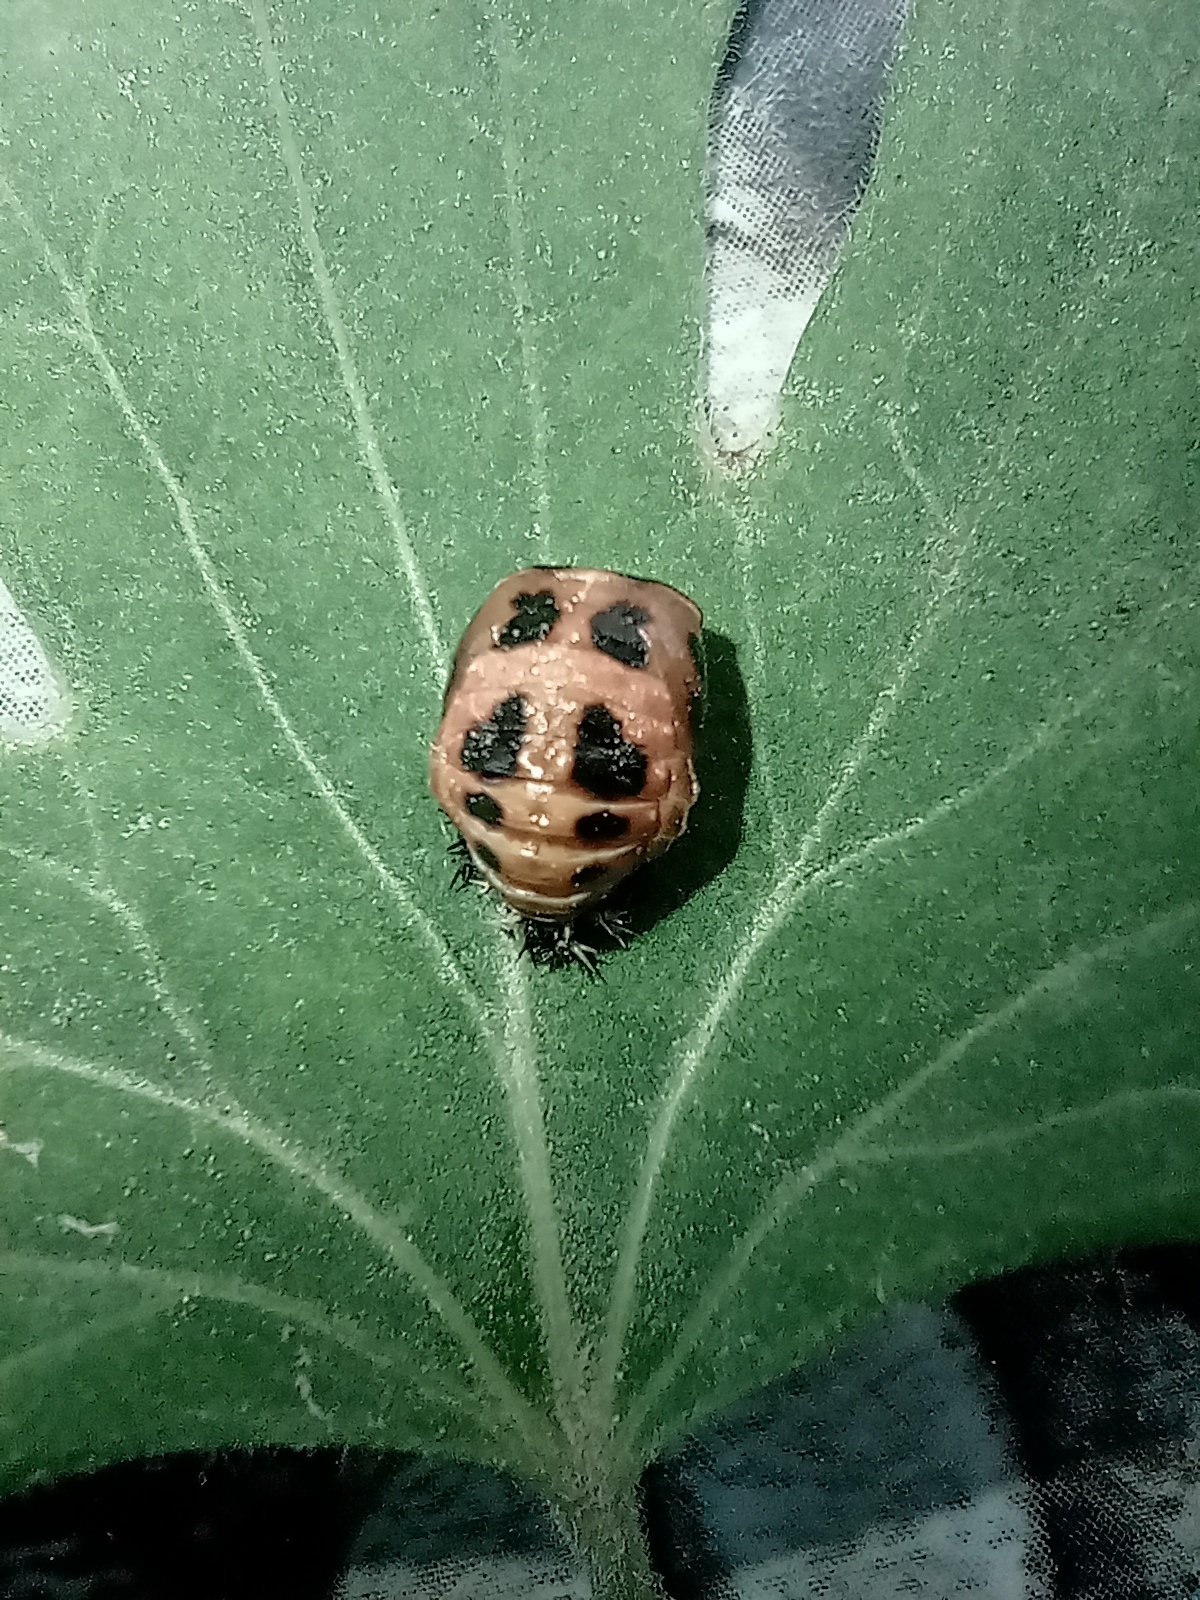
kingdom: Animalia
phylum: Arthropoda
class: Insecta
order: Coleoptera
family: Coccinellidae
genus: Harmonia
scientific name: Harmonia axyridis
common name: Harlequin ladybird
